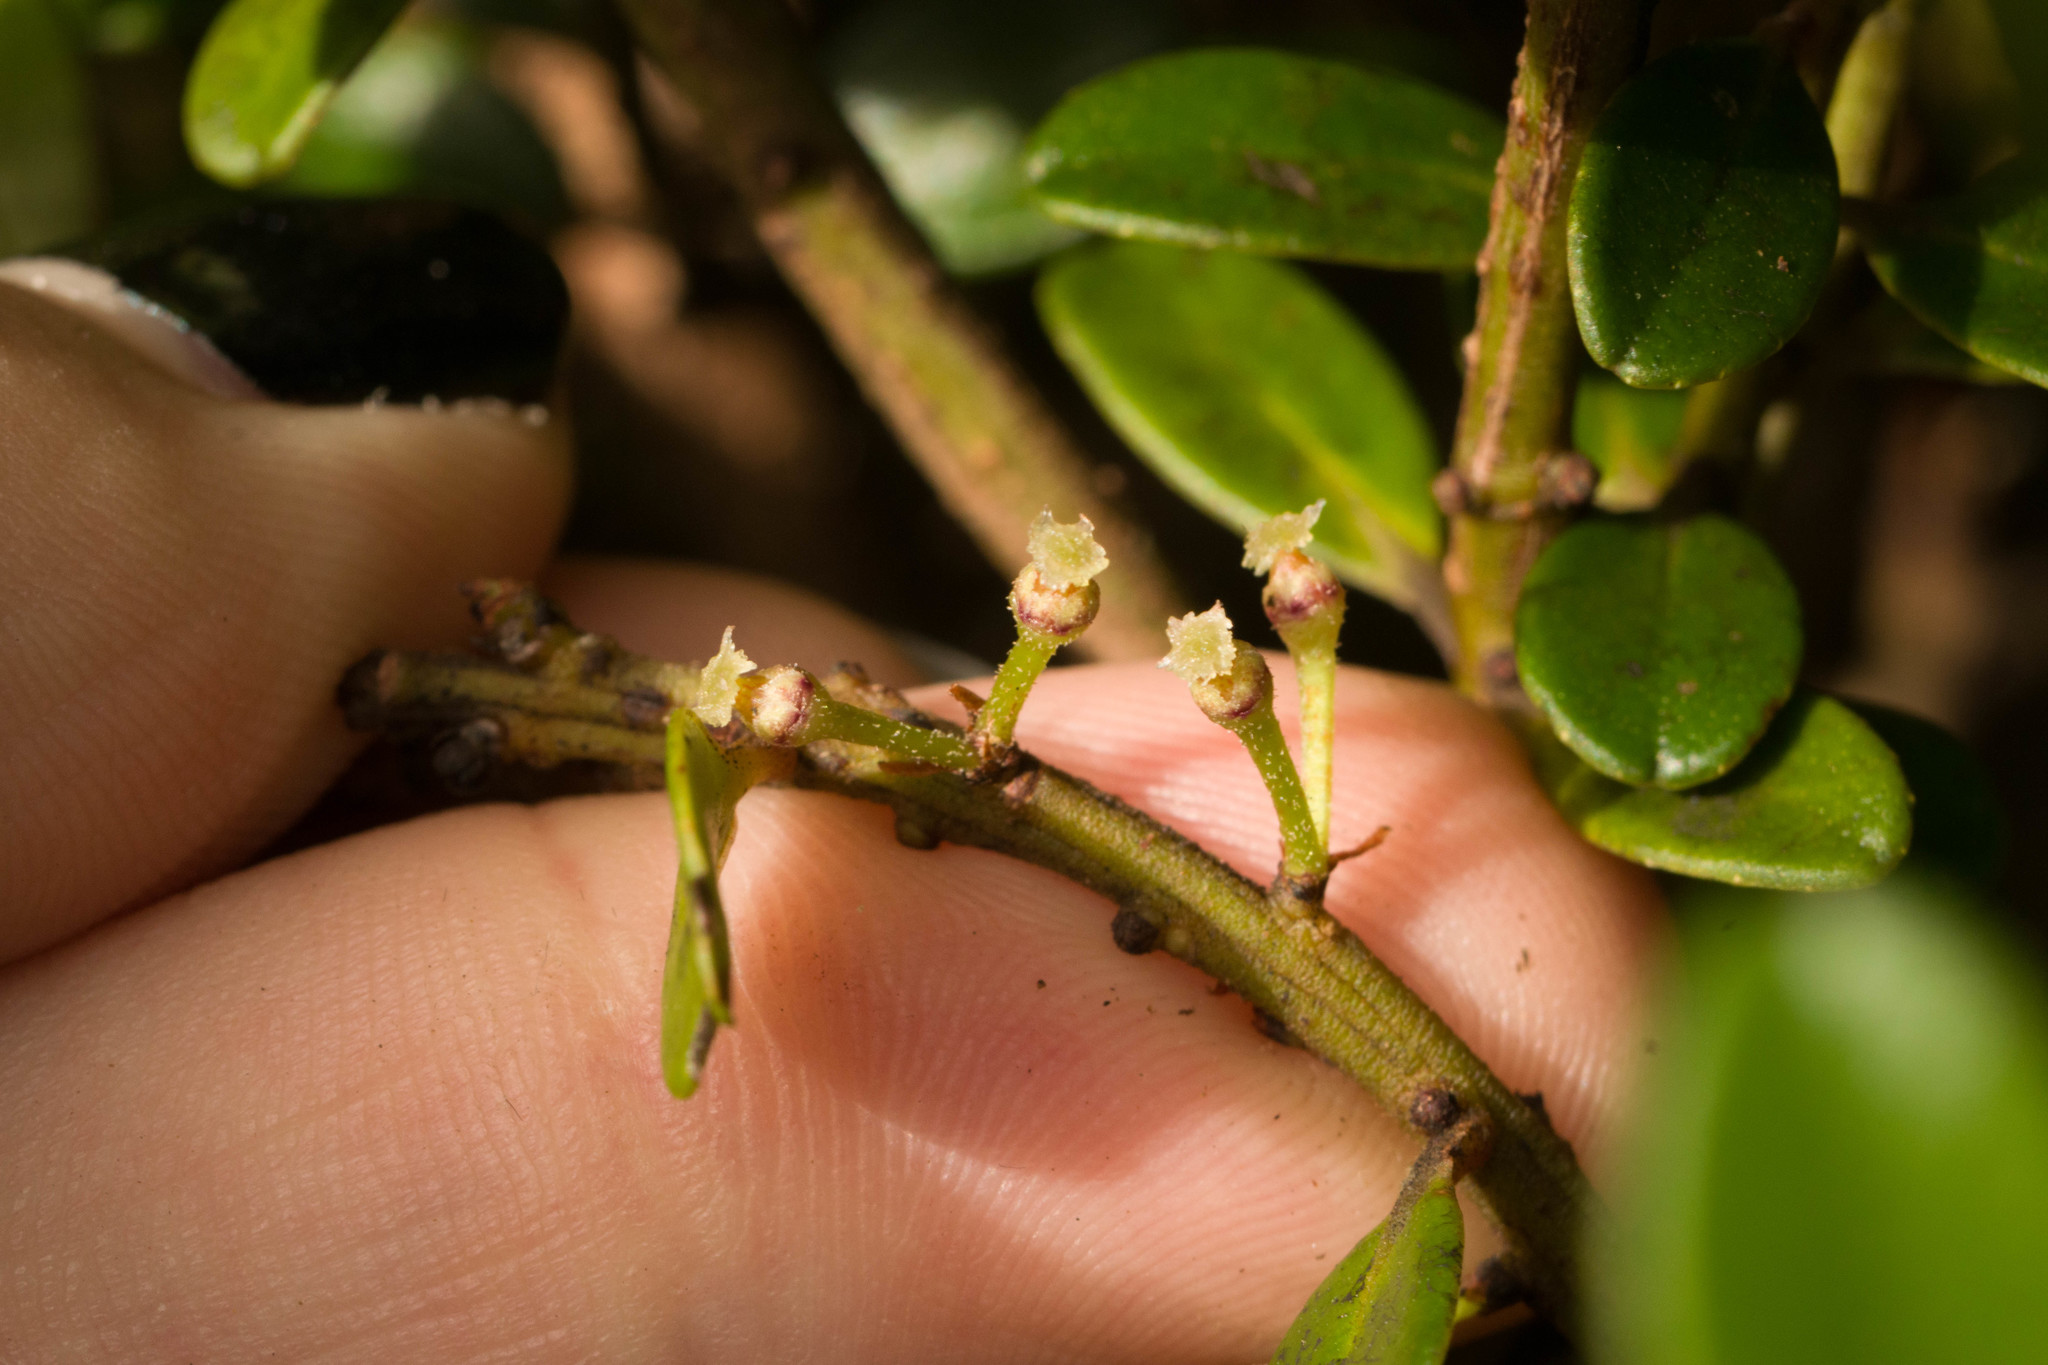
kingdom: Plantae
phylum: Tracheophyta
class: Magnoliopsida
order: Ericales
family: Primulaceae
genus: Myrsine
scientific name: Myrsine sandwicensis
